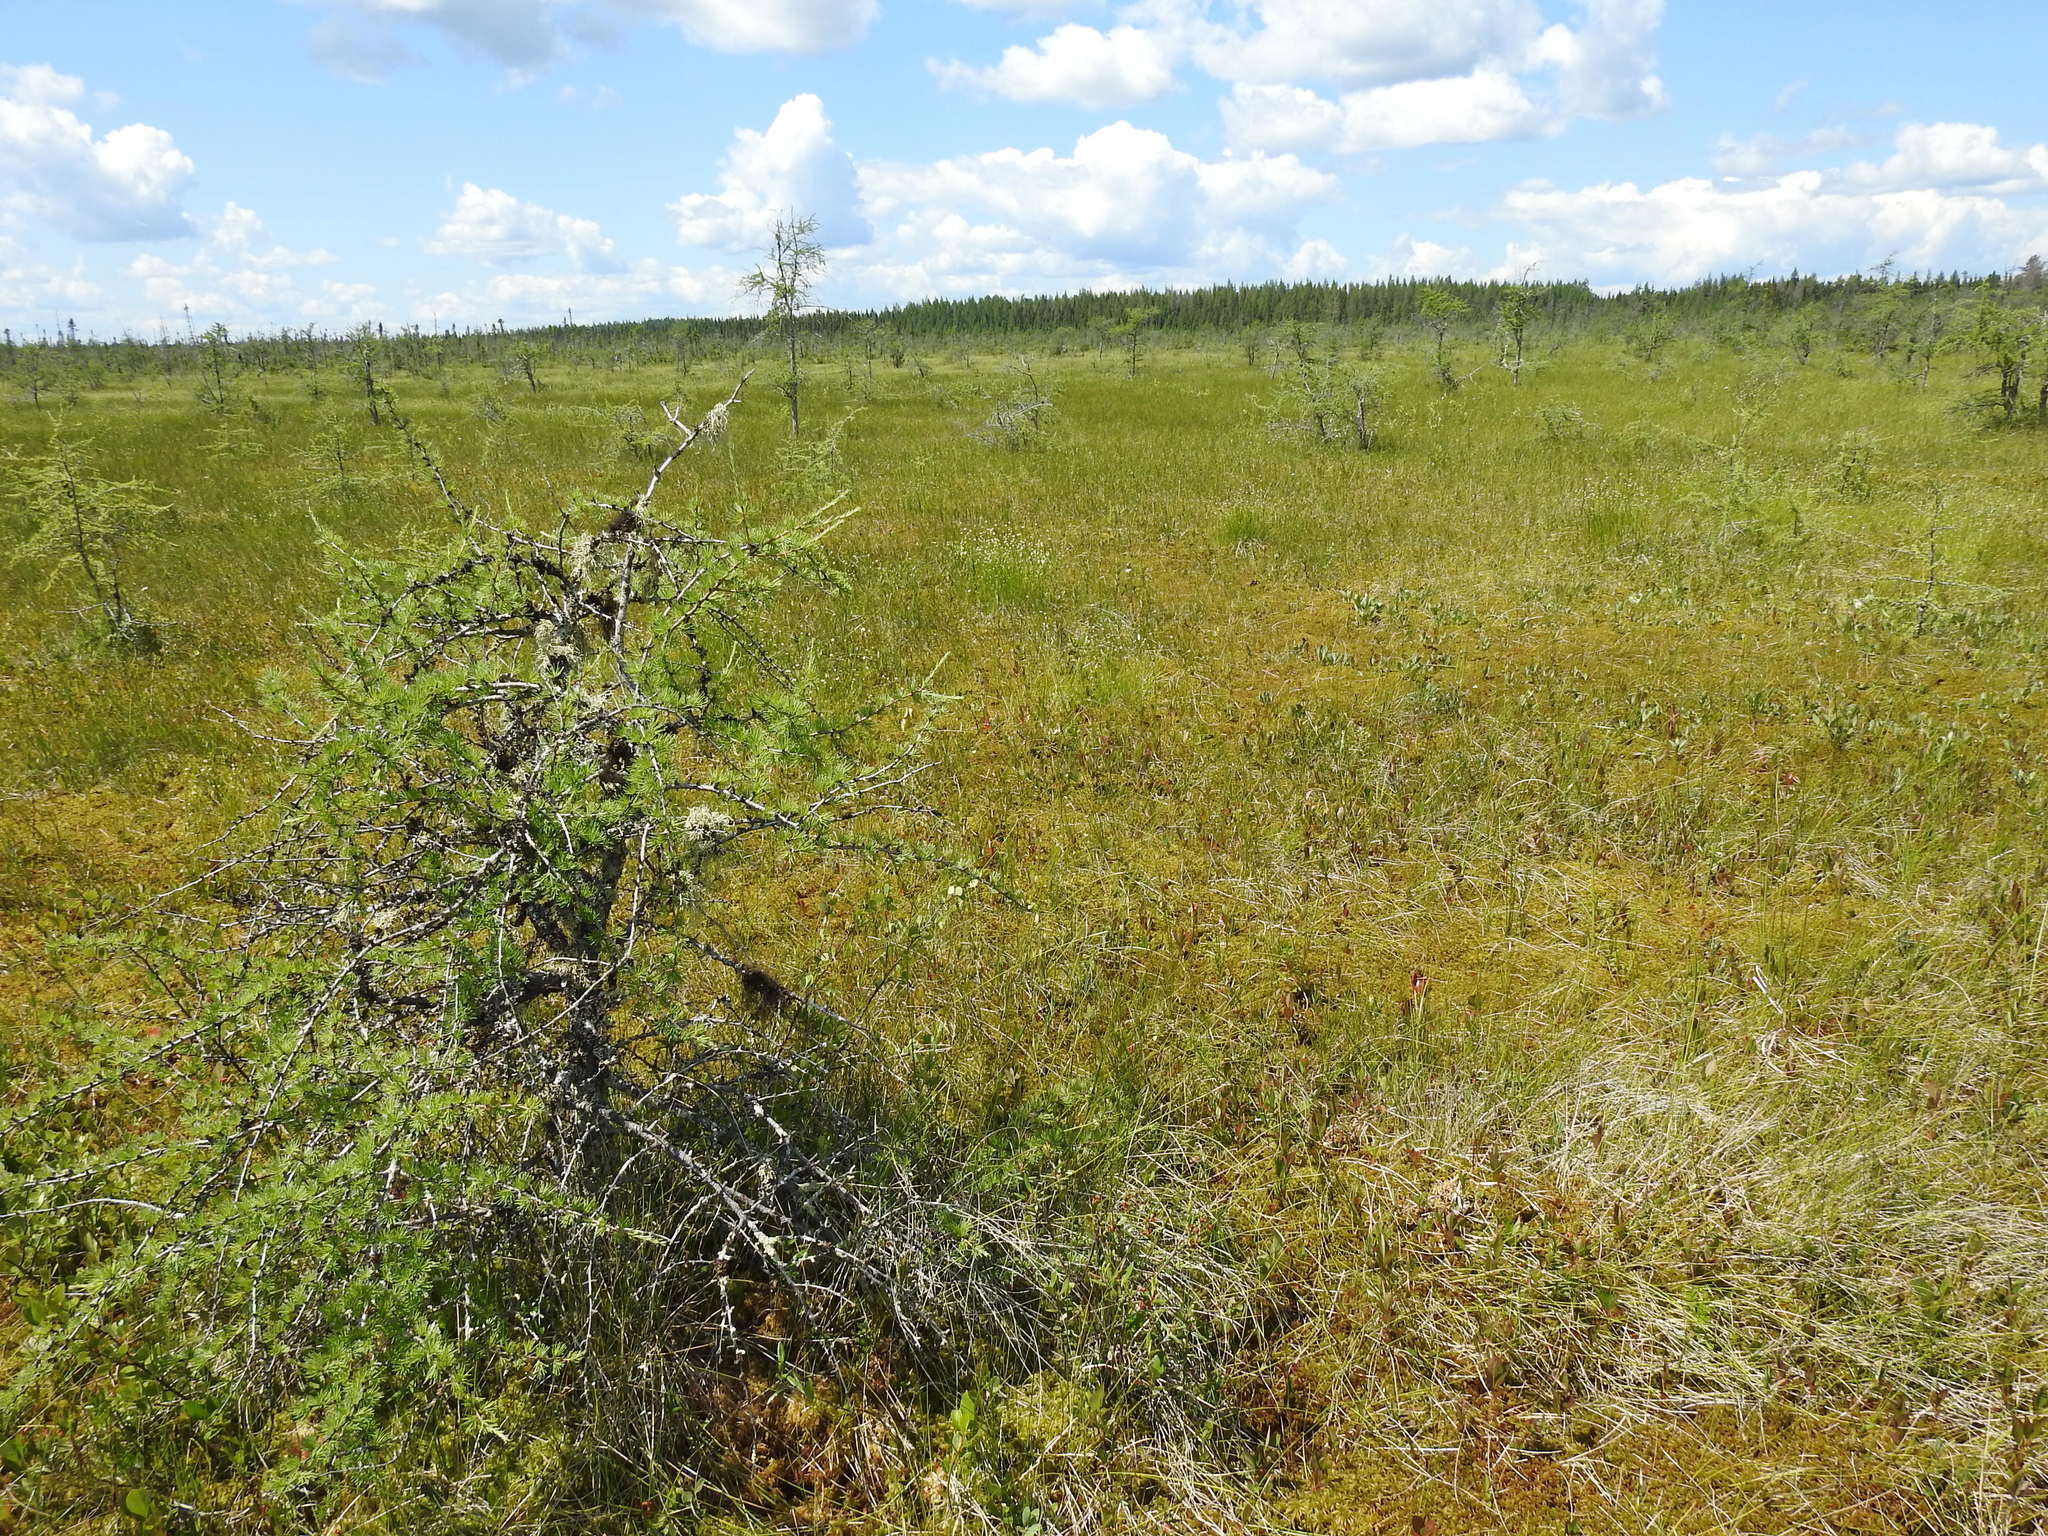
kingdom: Plantae
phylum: Tracheophyta
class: Pinopsida
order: Pinales
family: Pinaceae
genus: Larix
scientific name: Larix laricina
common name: American larch
